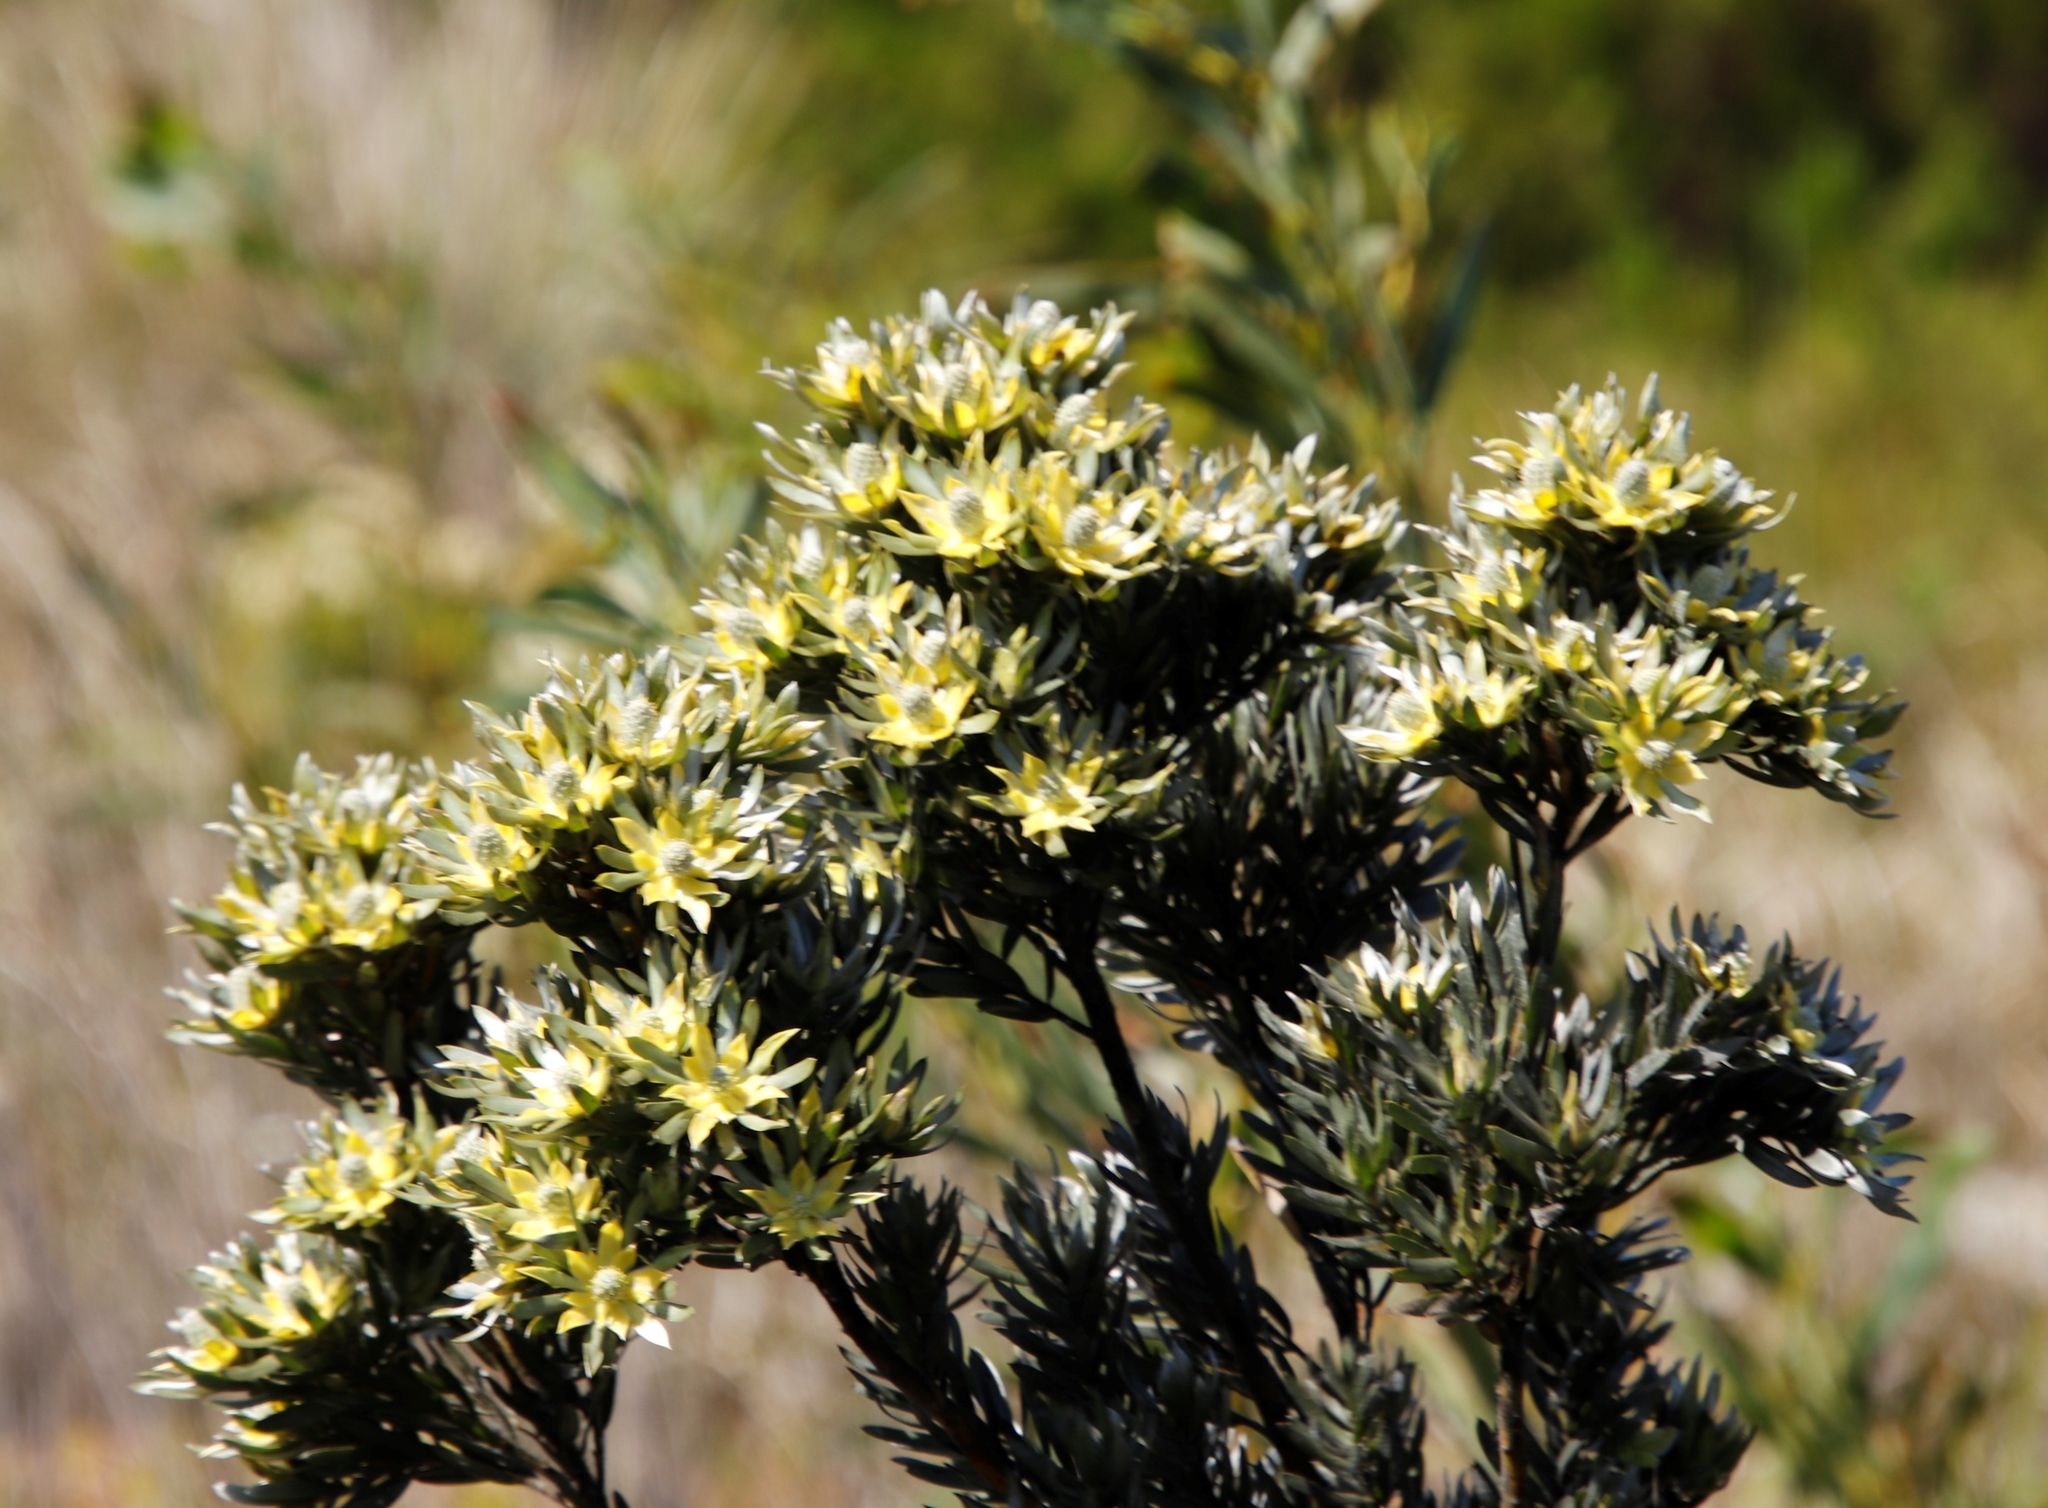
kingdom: Plantae
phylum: Tracheophyta
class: Magnoliopsida
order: Proteales
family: Proteaceae
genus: Leucadendron
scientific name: Leucadendron floridum
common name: Flats conebush
